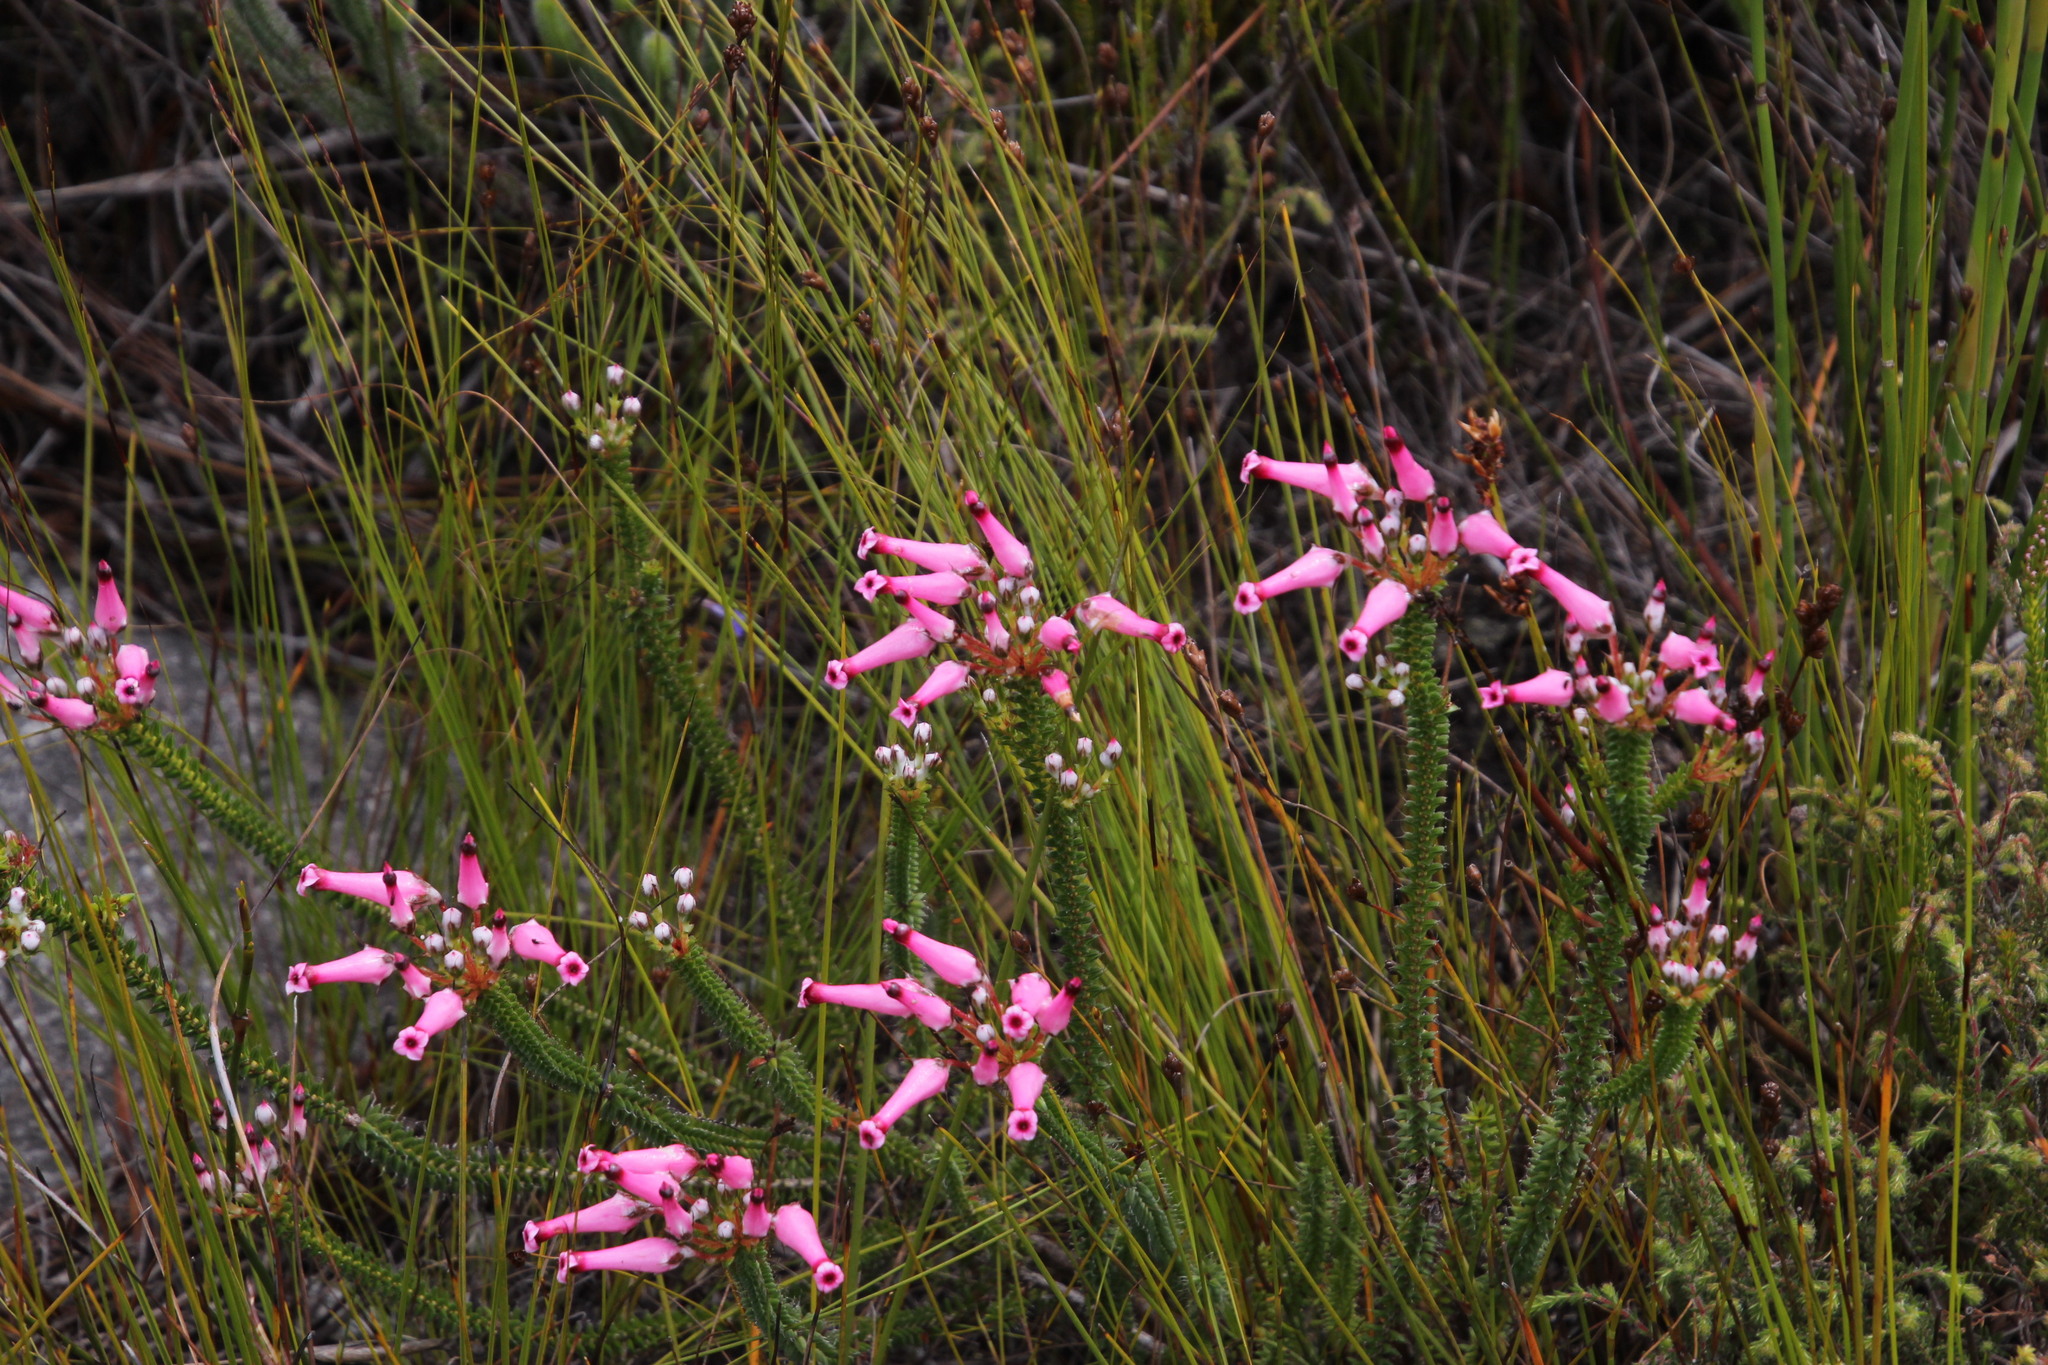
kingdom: Plantae
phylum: Tracheophyta
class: Magnoliopsida
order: Ericales
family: Ericaceae
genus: Erica
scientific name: Erica retorta
